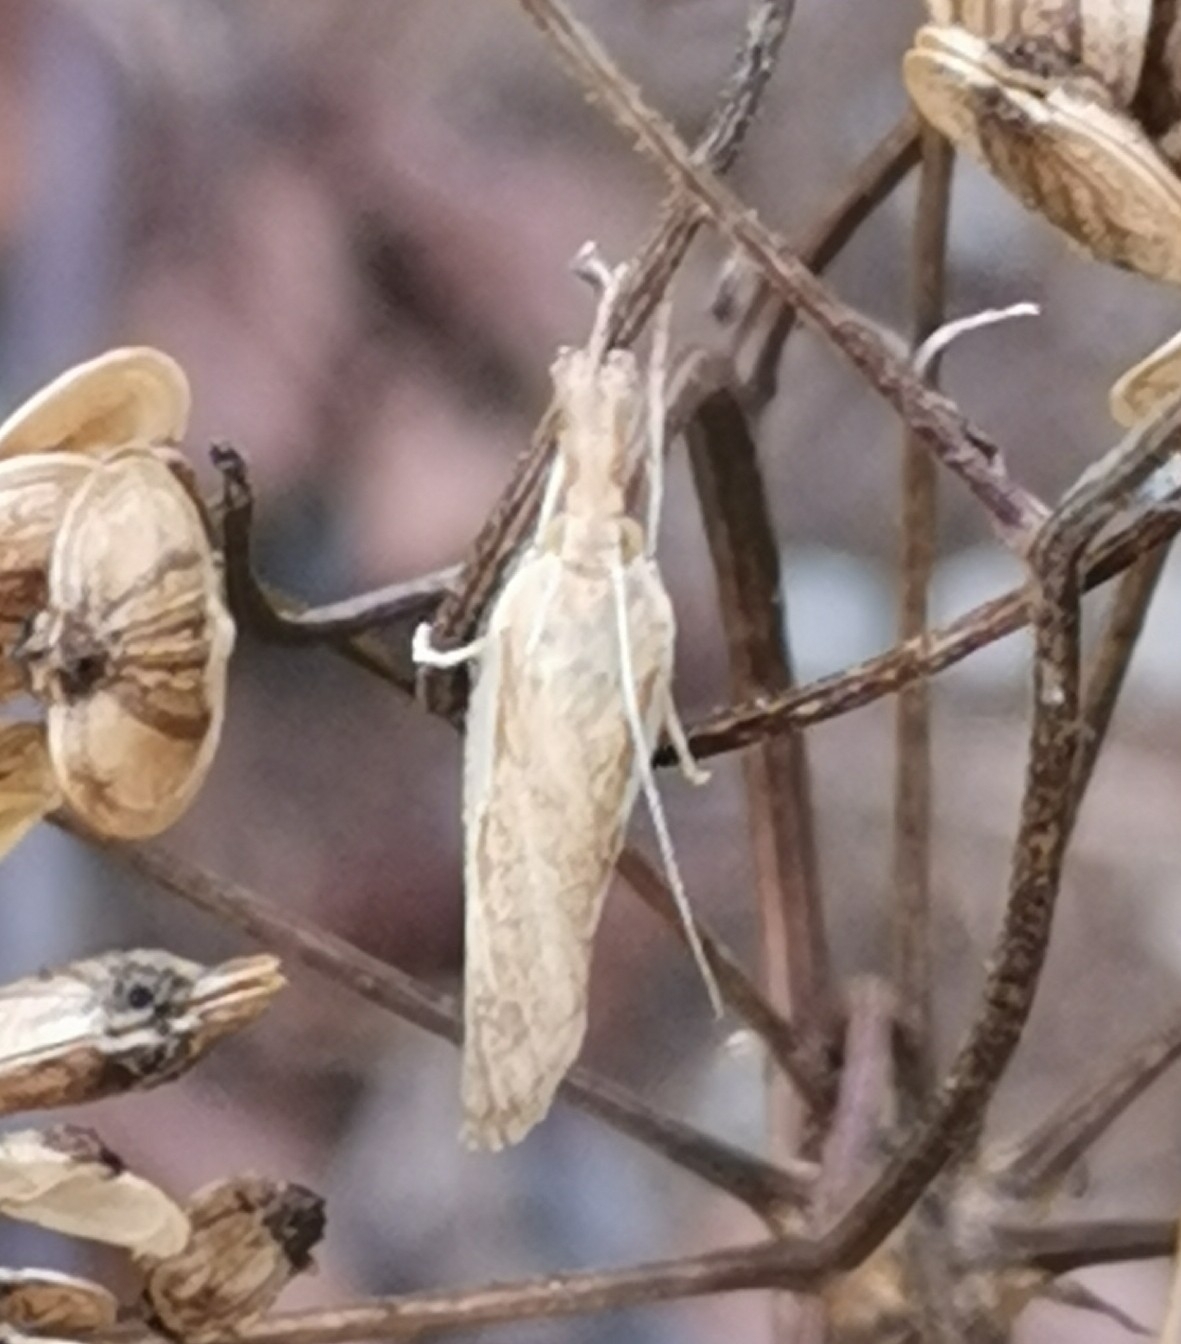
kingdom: Animalia
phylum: Arthropoda
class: Insecta
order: Lepidoptera
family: Crambidae
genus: Agriphila
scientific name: Agriphila tristellus
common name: Common grass-veneer
